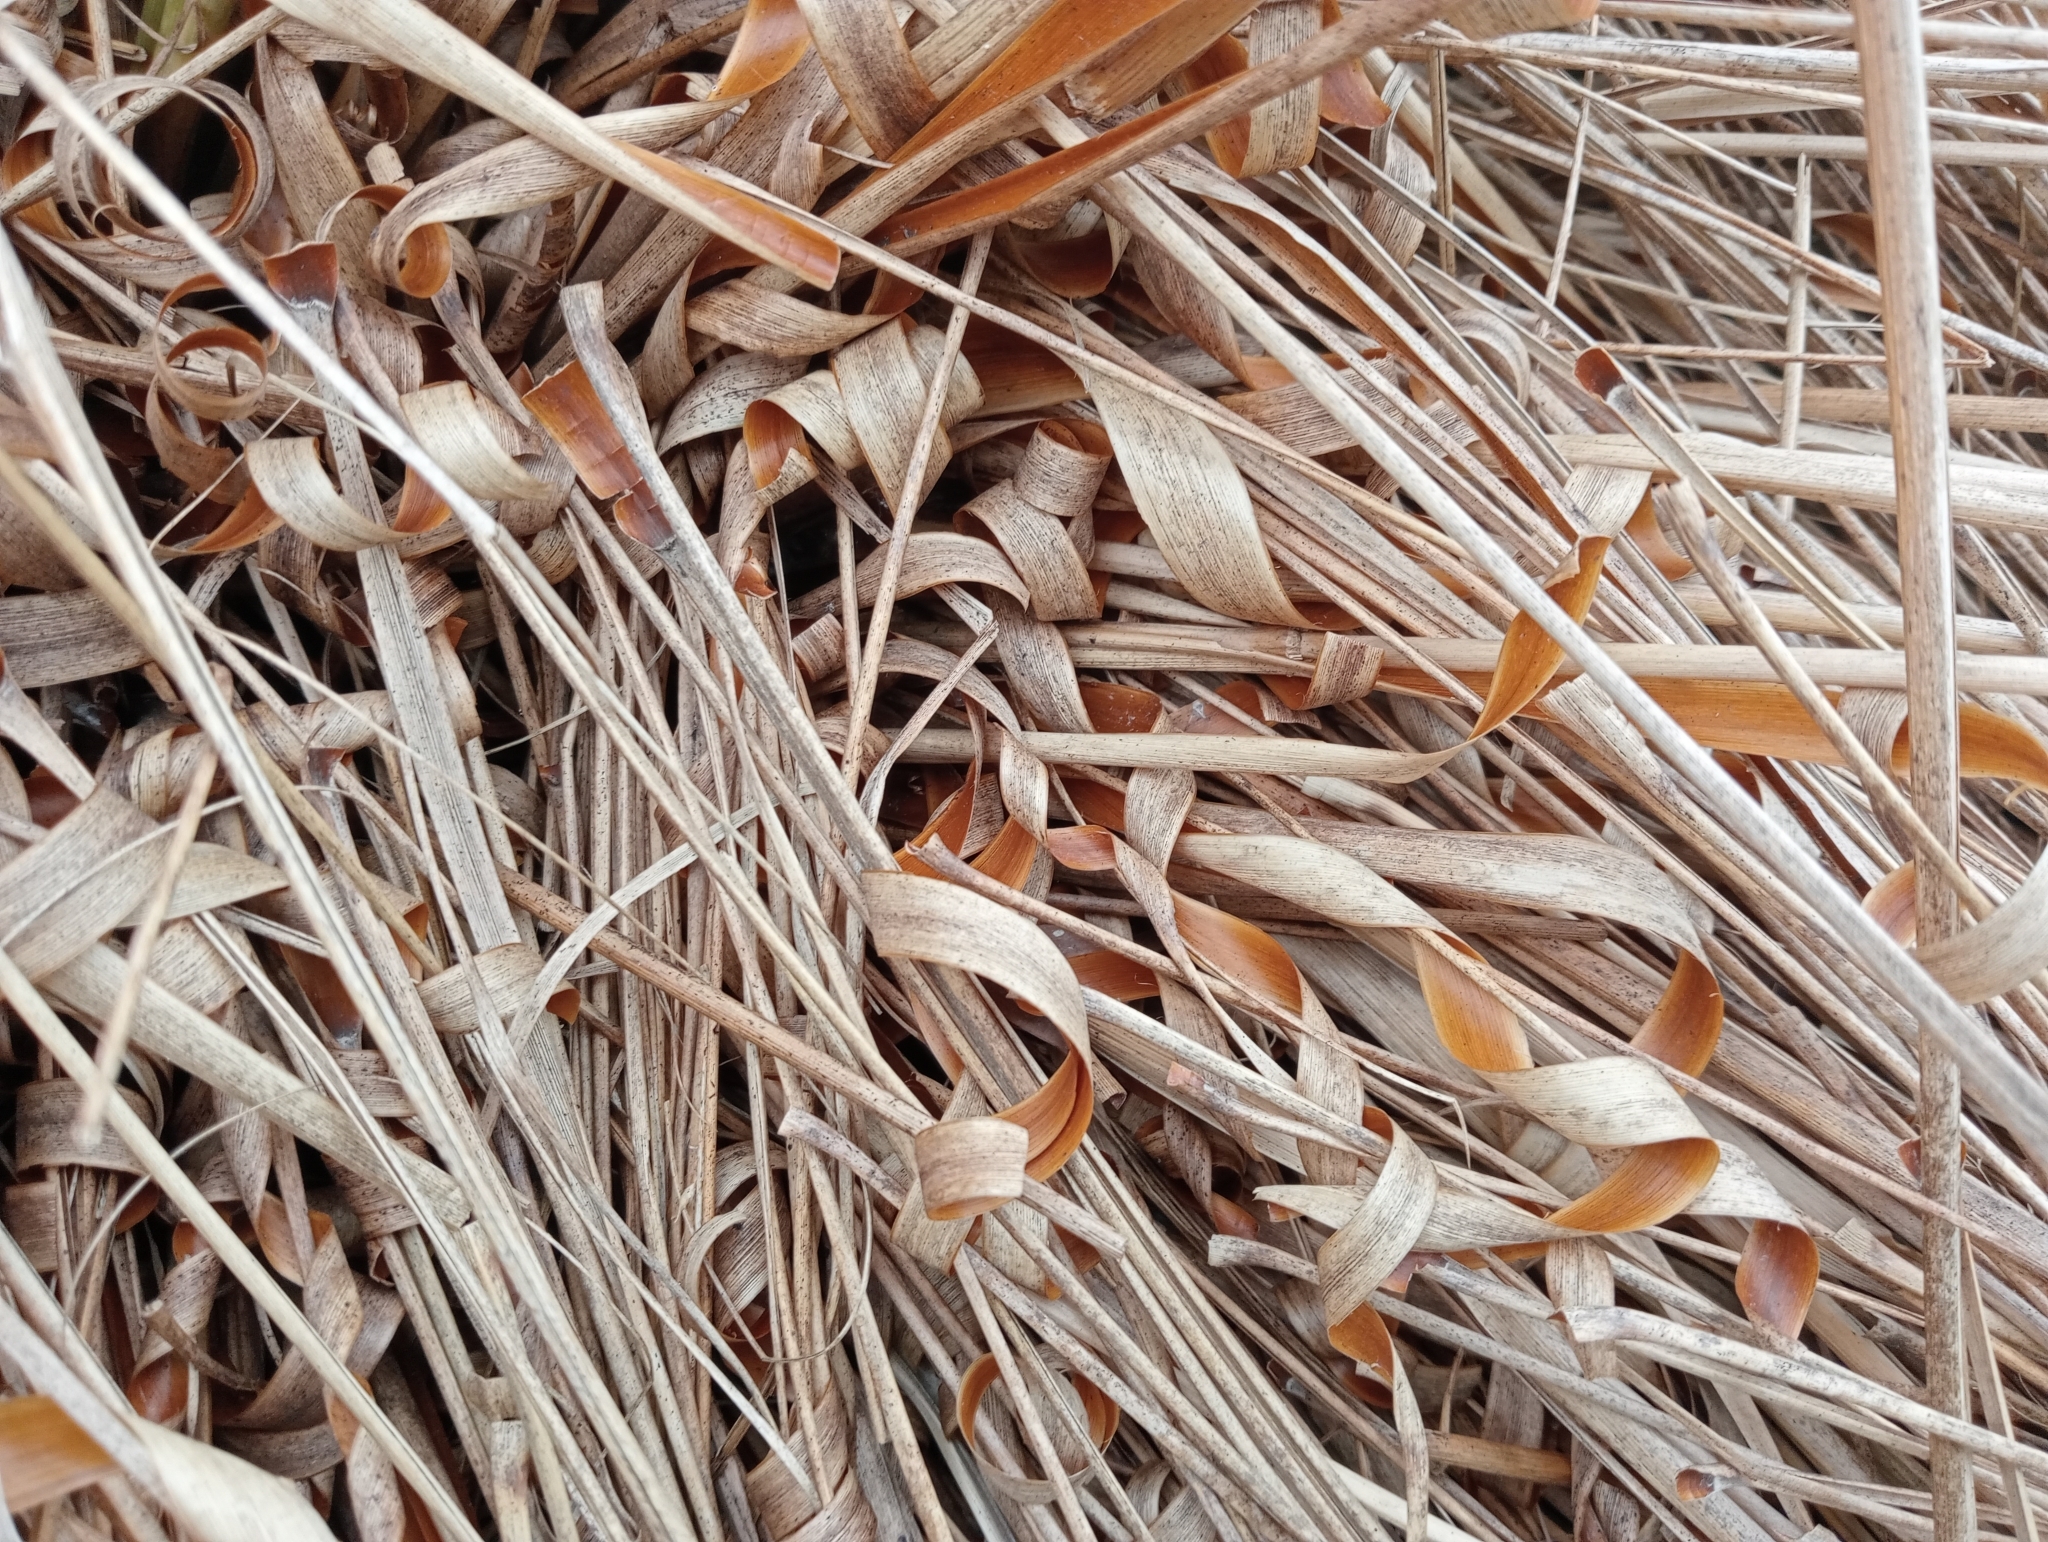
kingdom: Plantae
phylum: Tracheophyta
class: Liliopsida
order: Poales
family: Poaceae
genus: Chionochloa
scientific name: Chionochloa rigida
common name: Narrow leaved snow tussock
